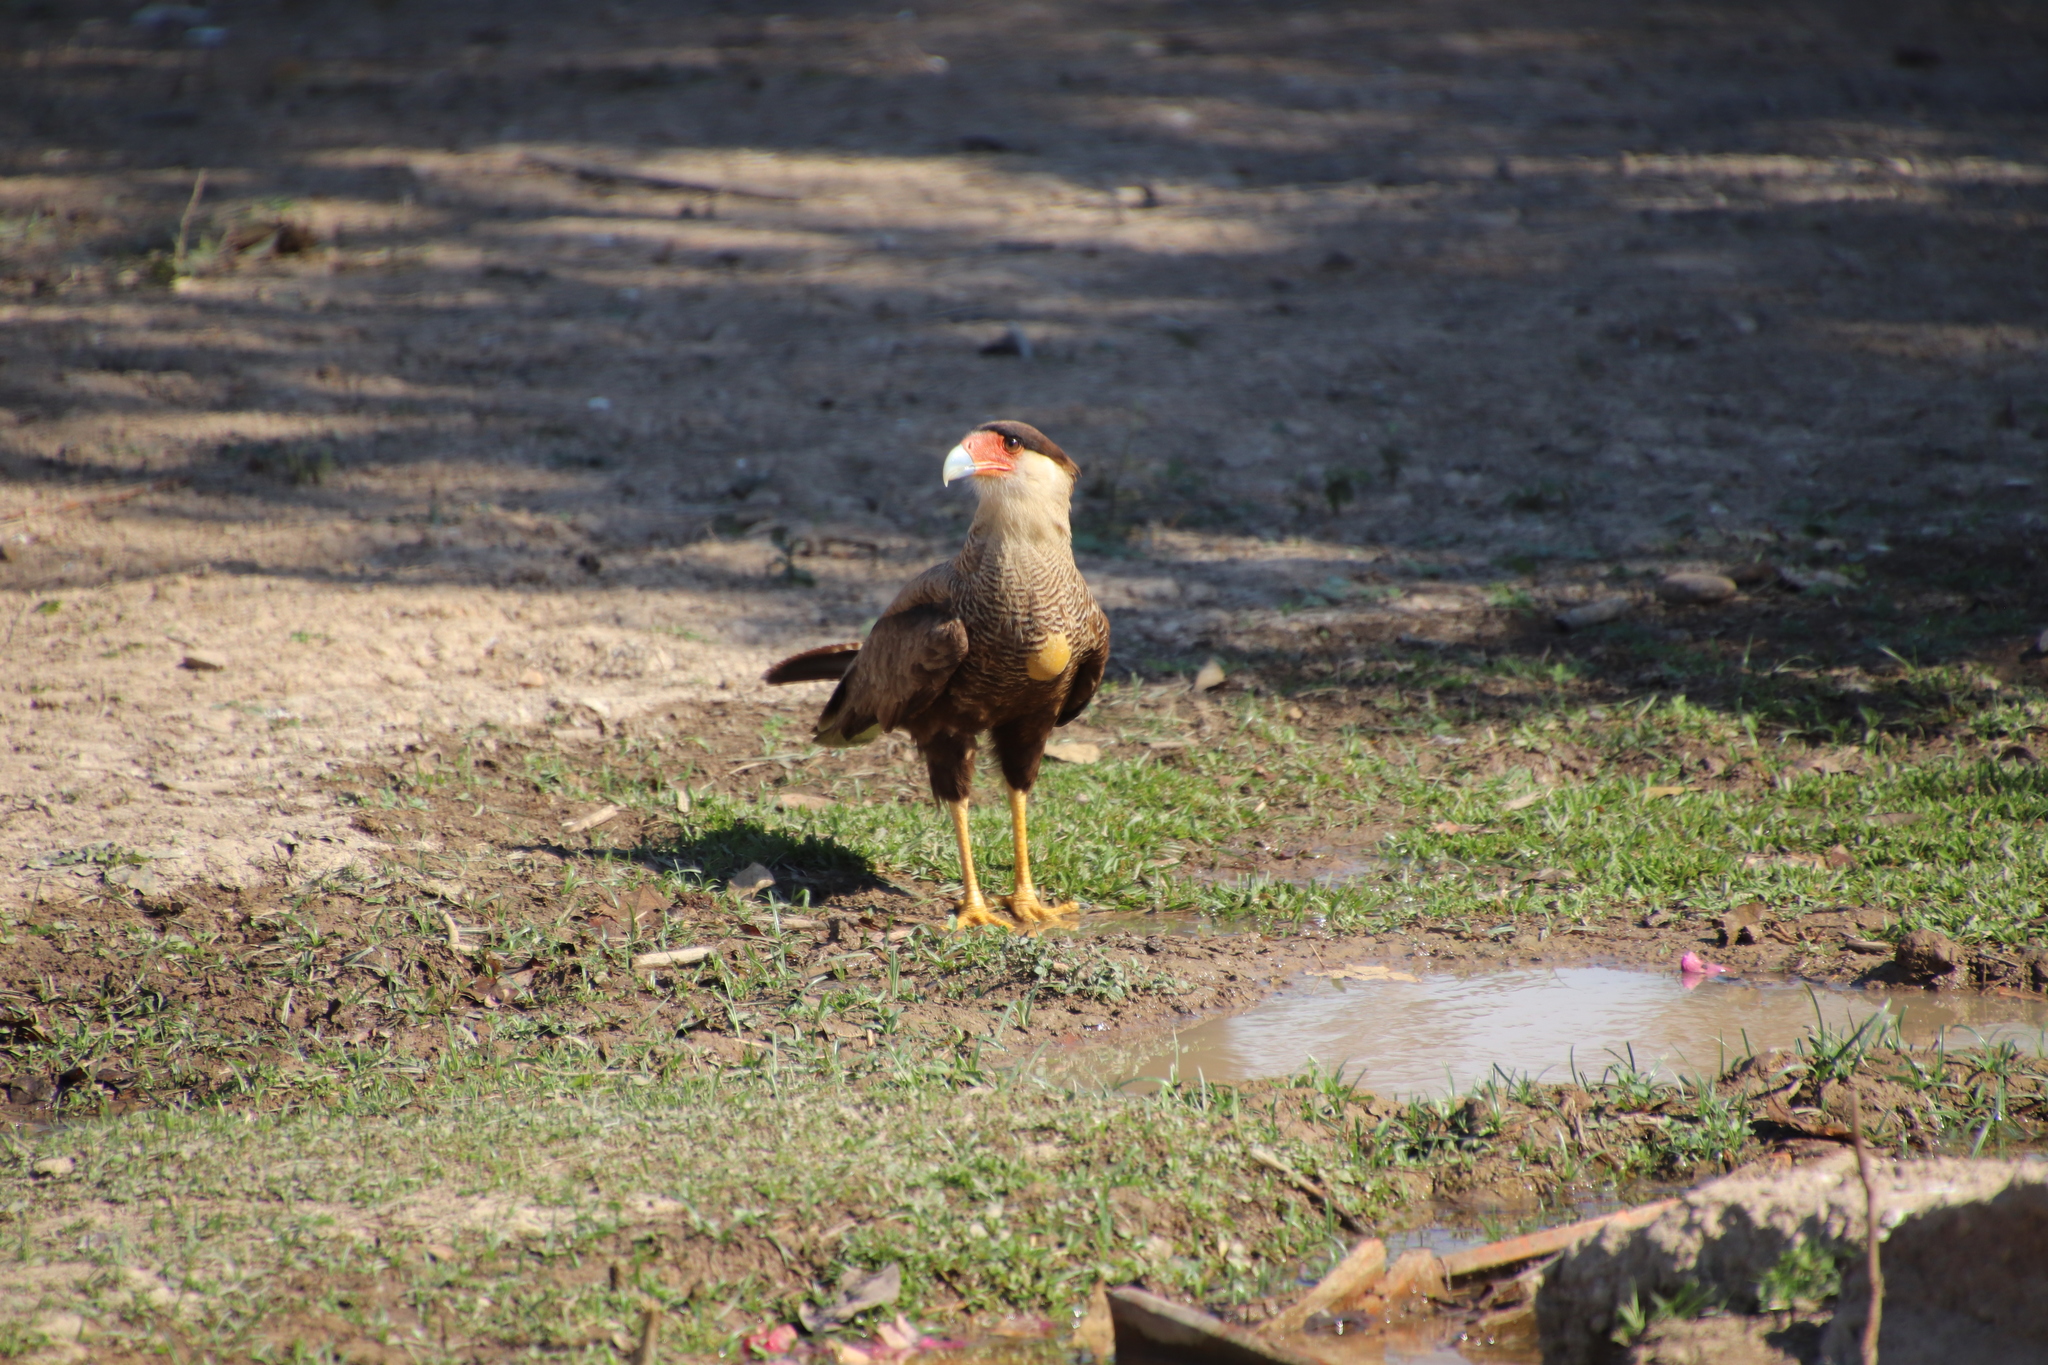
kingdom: Animalia
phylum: Chordata
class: Aves
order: Falconiformes
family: Falconidae
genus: Caracara
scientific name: Caracara plancus
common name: Southern caracara
